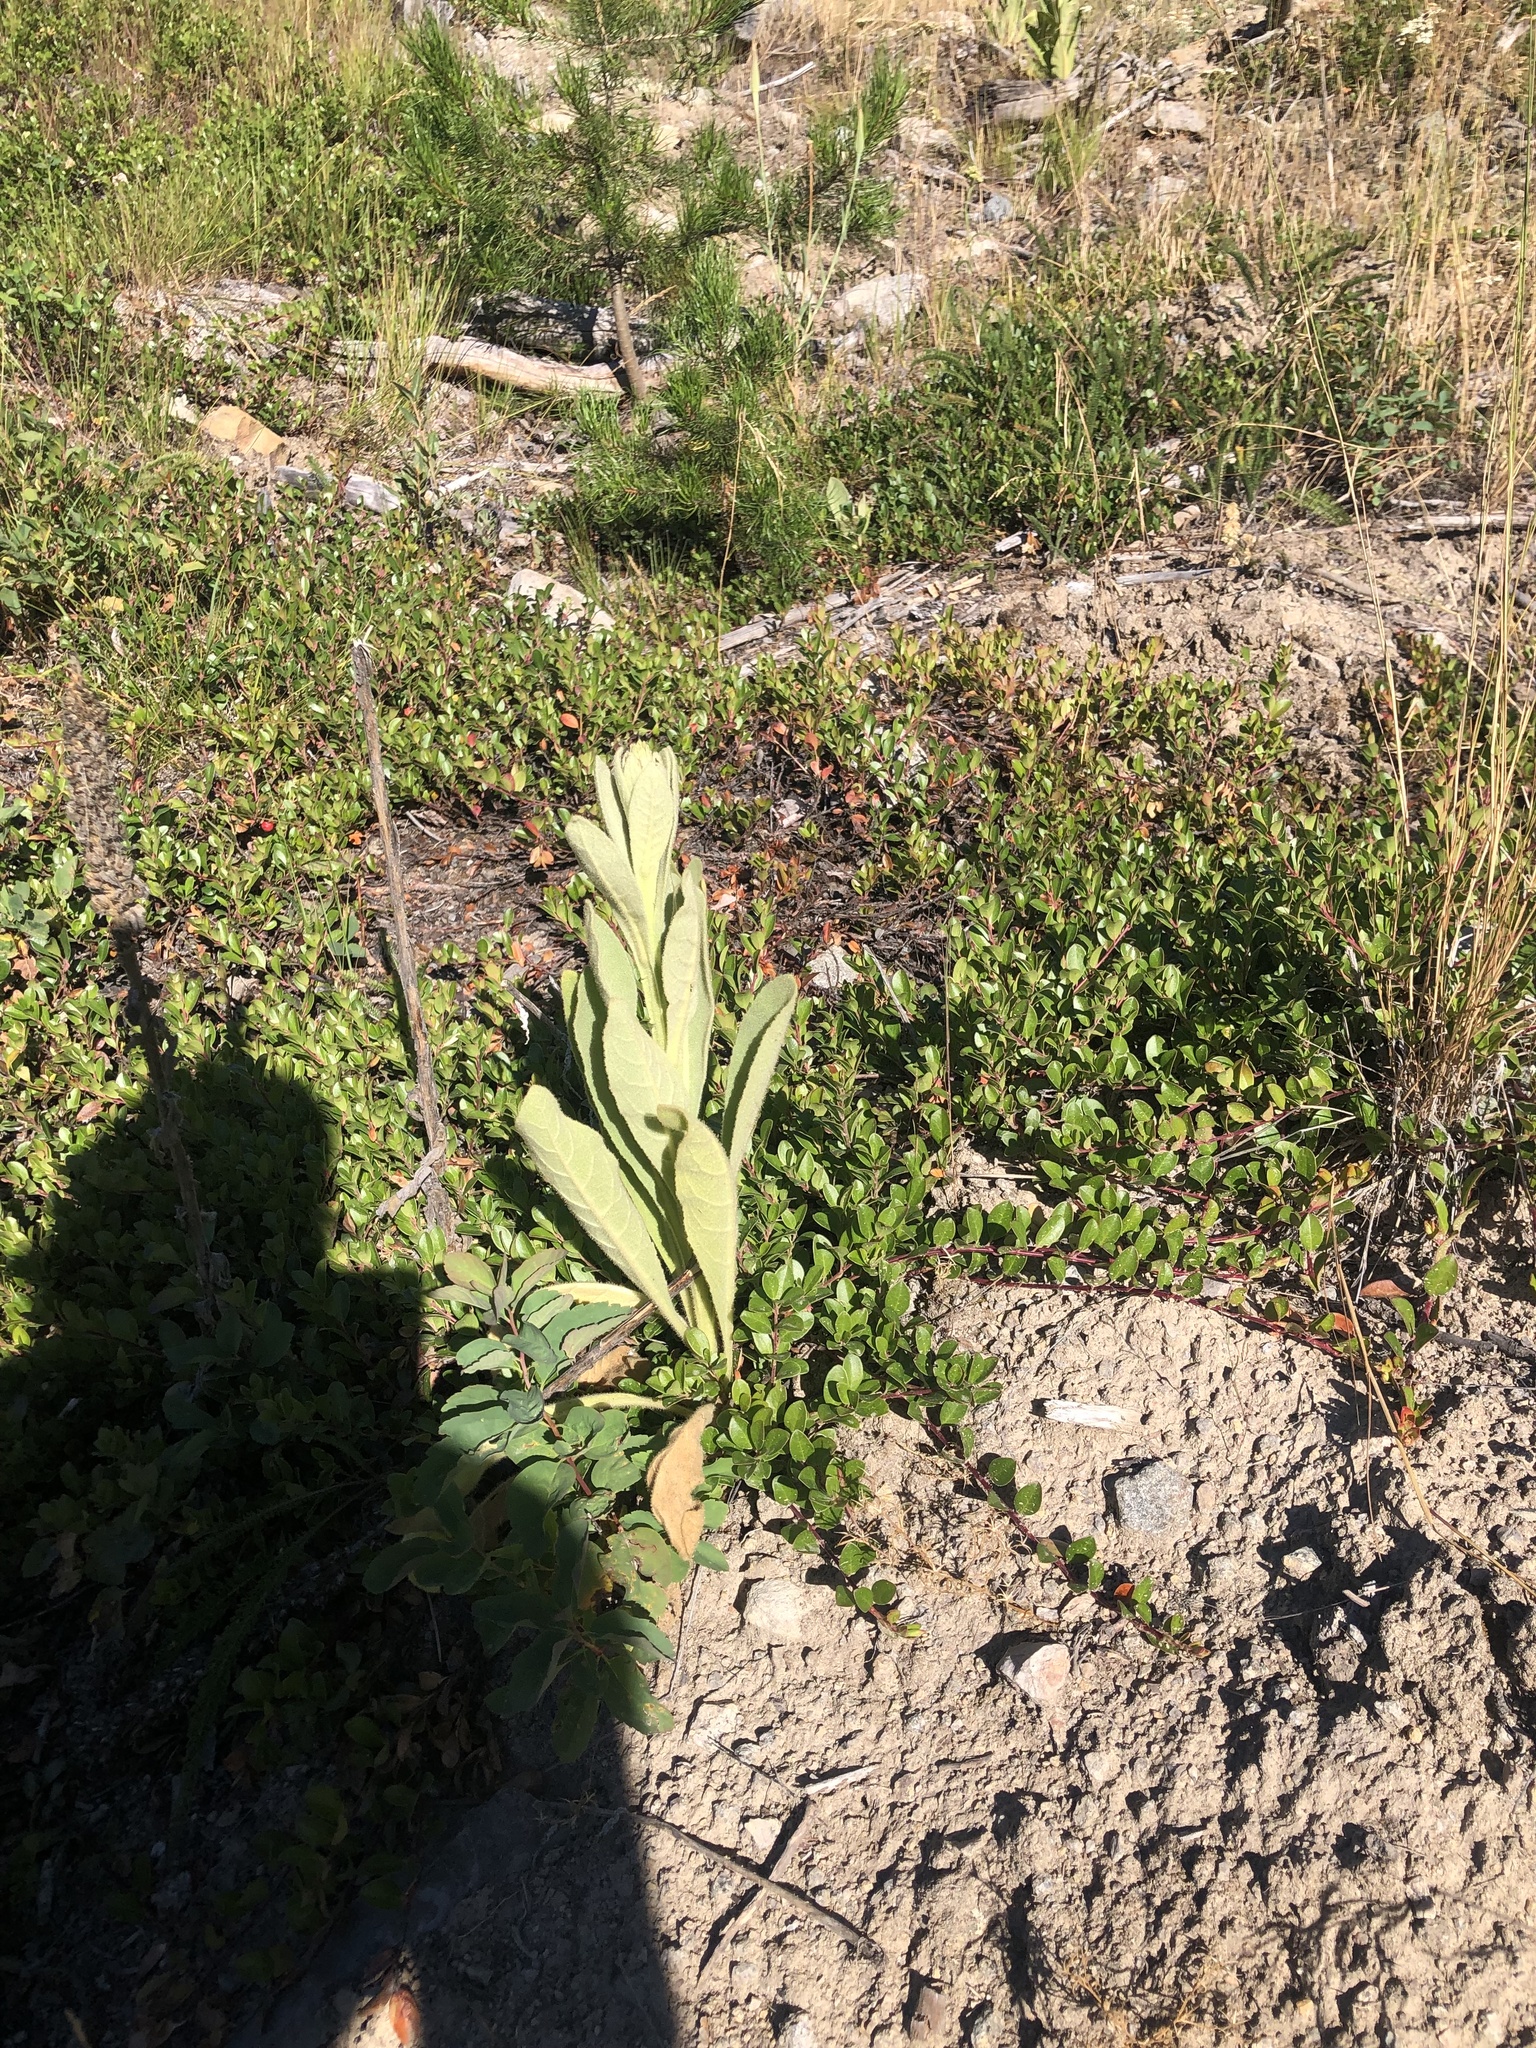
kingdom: Plantae
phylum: Tracheophyta
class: Magnoliopsida
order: Lamiales
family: Scrophulariaceae
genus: Verbascum
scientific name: Verbascum thapsus
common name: Common mullein
